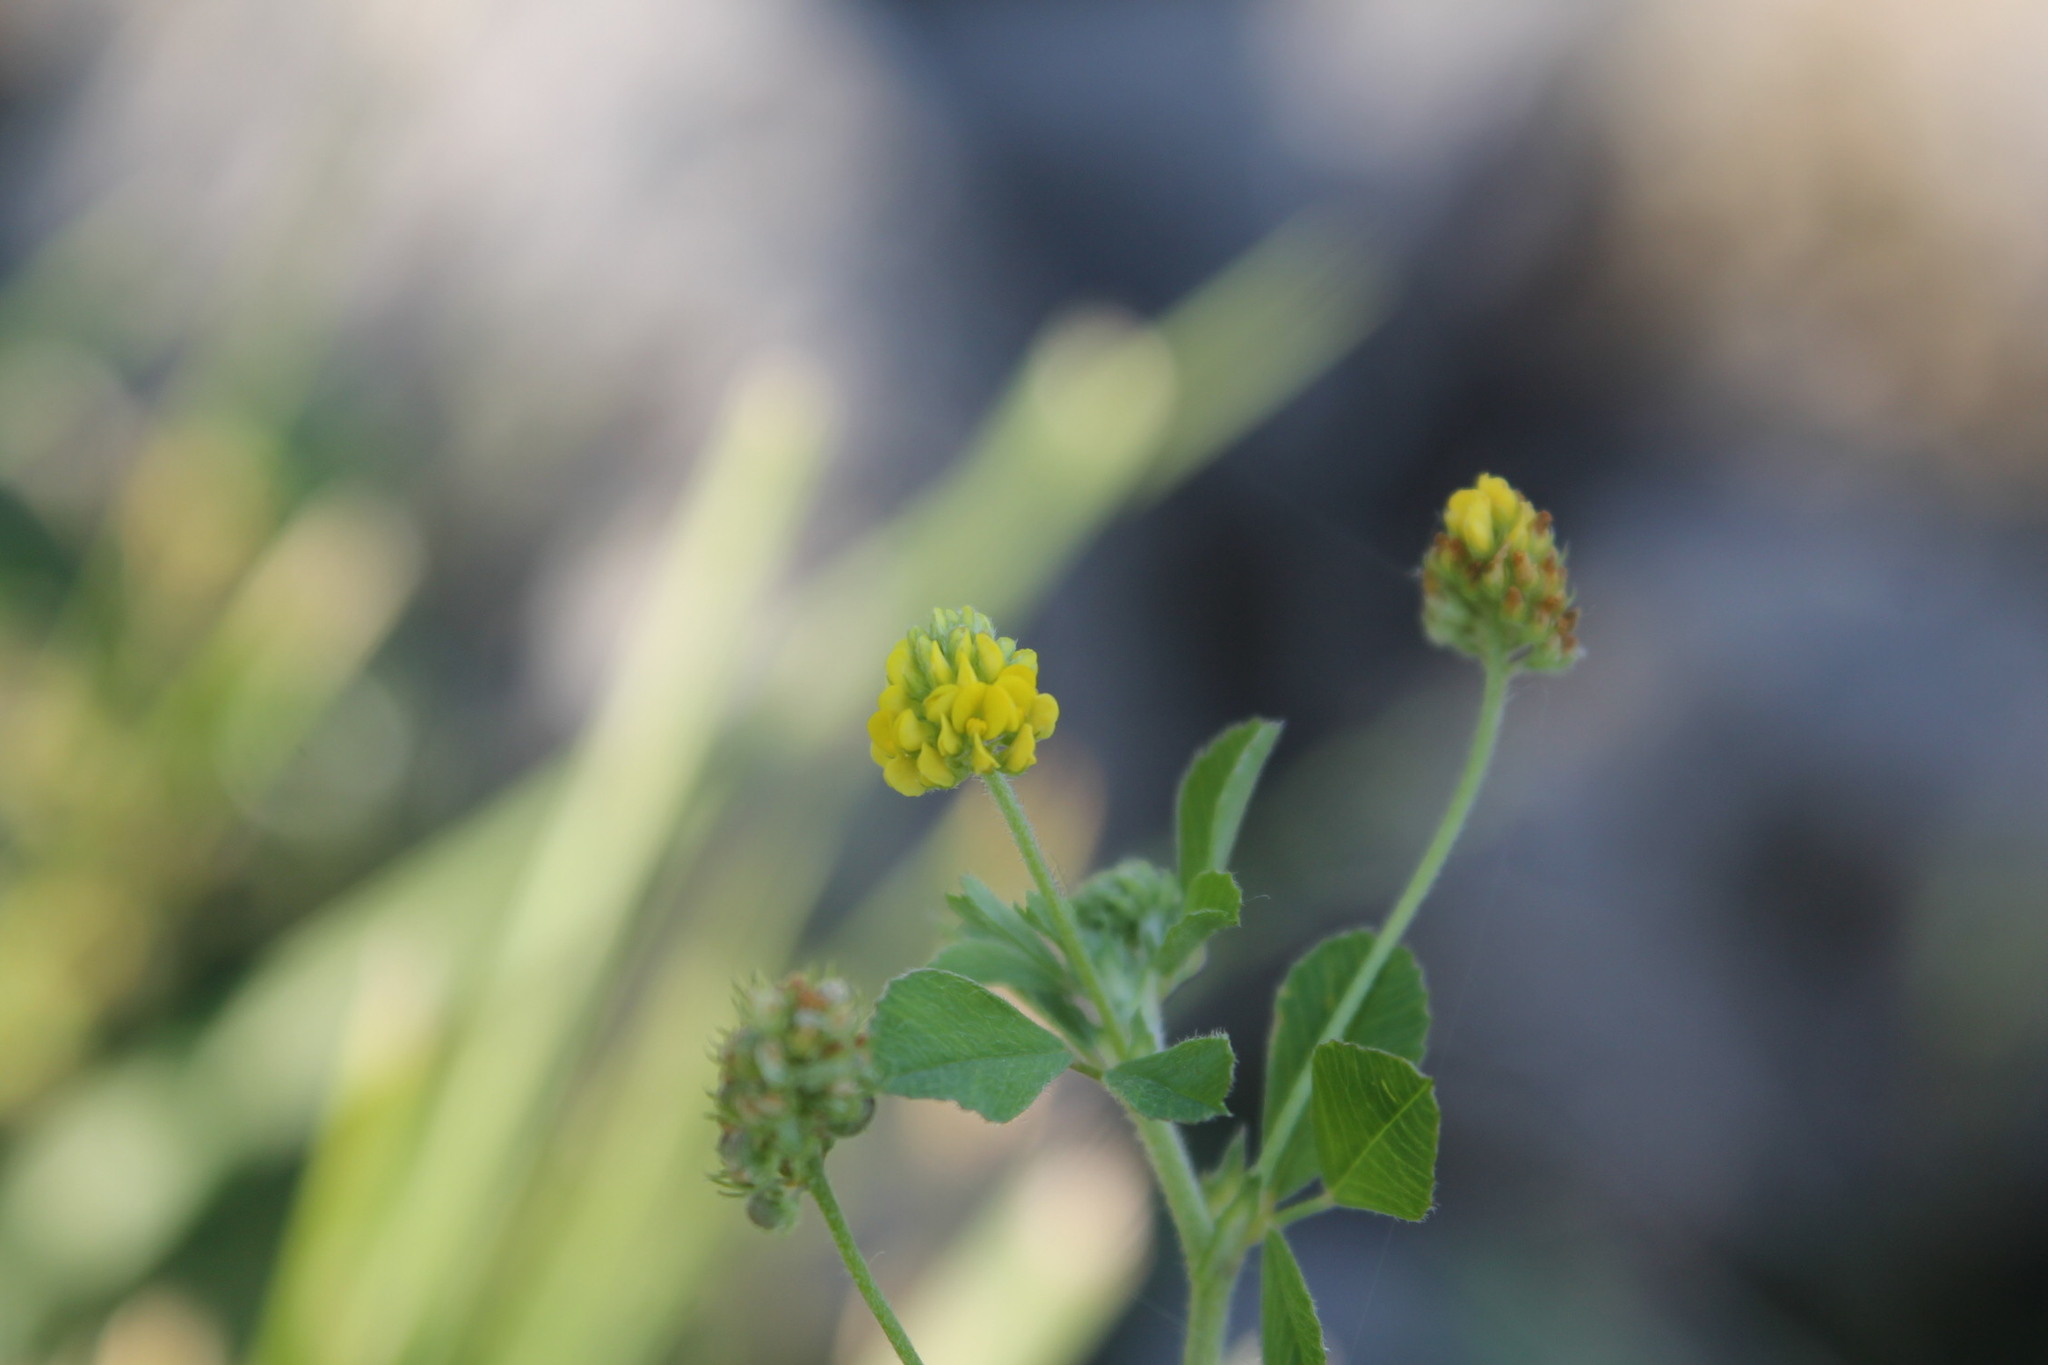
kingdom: Plantae
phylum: Tracheophyta
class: Magnoliopsida
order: Fabales
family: Fabaceae
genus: Medicago
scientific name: Medicago lupulina
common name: Black medick
